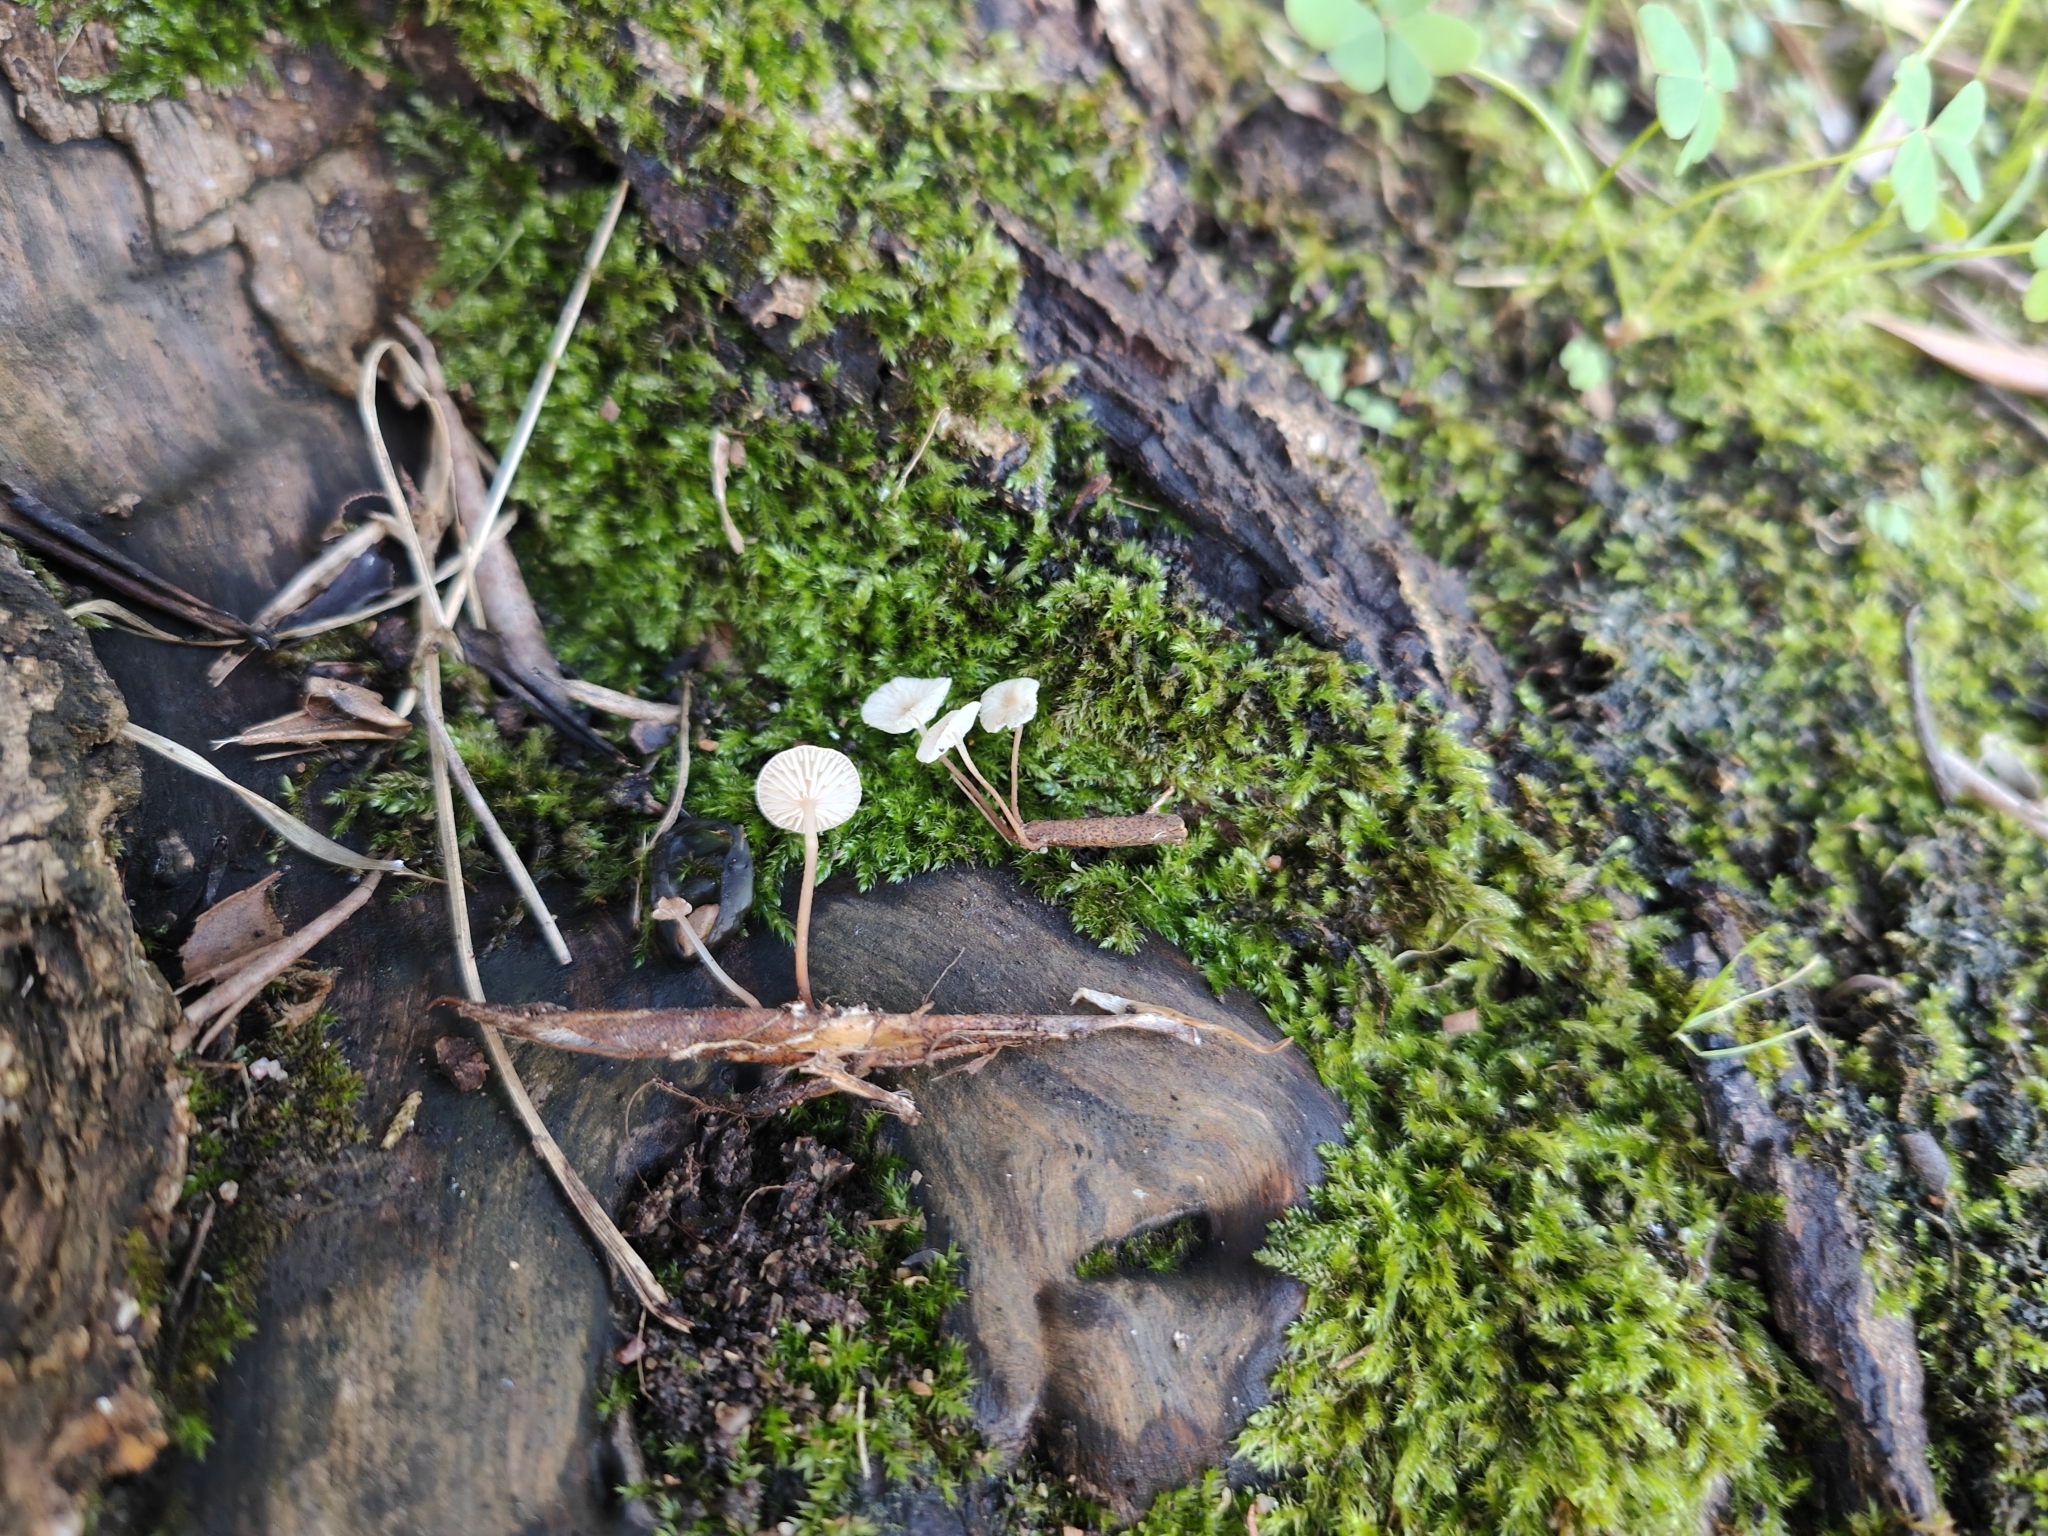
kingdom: Fungi
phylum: Basidiomycota
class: Agaricomycetes
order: Agaricales
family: Omphalotaceae
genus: Collybiopsis
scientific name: Collybiopsis vaillantii
